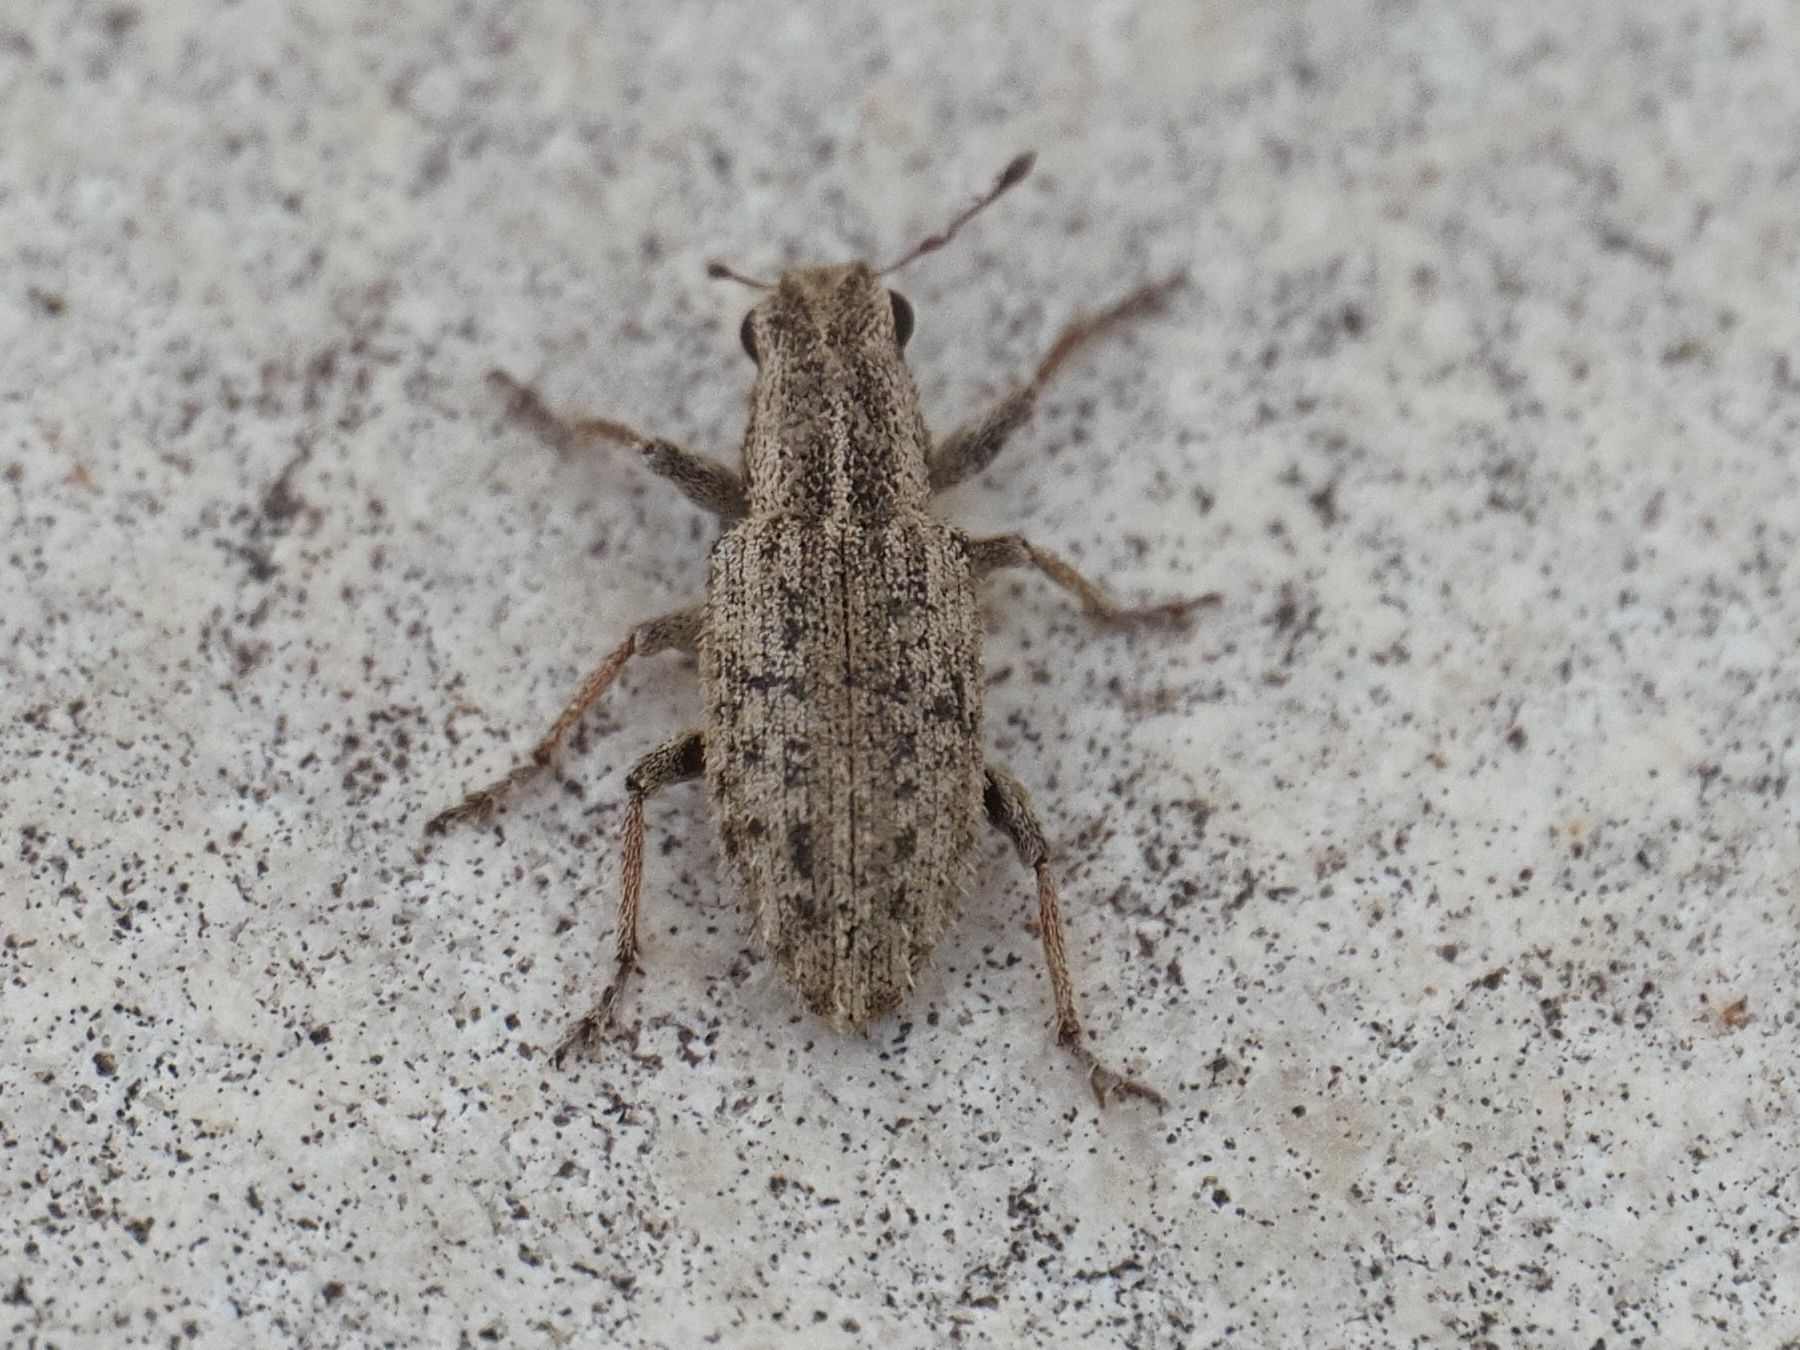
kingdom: Animalia
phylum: Arthropoda
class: Insecta
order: Coleoptera
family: Curculionidae
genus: Sitona
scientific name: Sitona macularius
